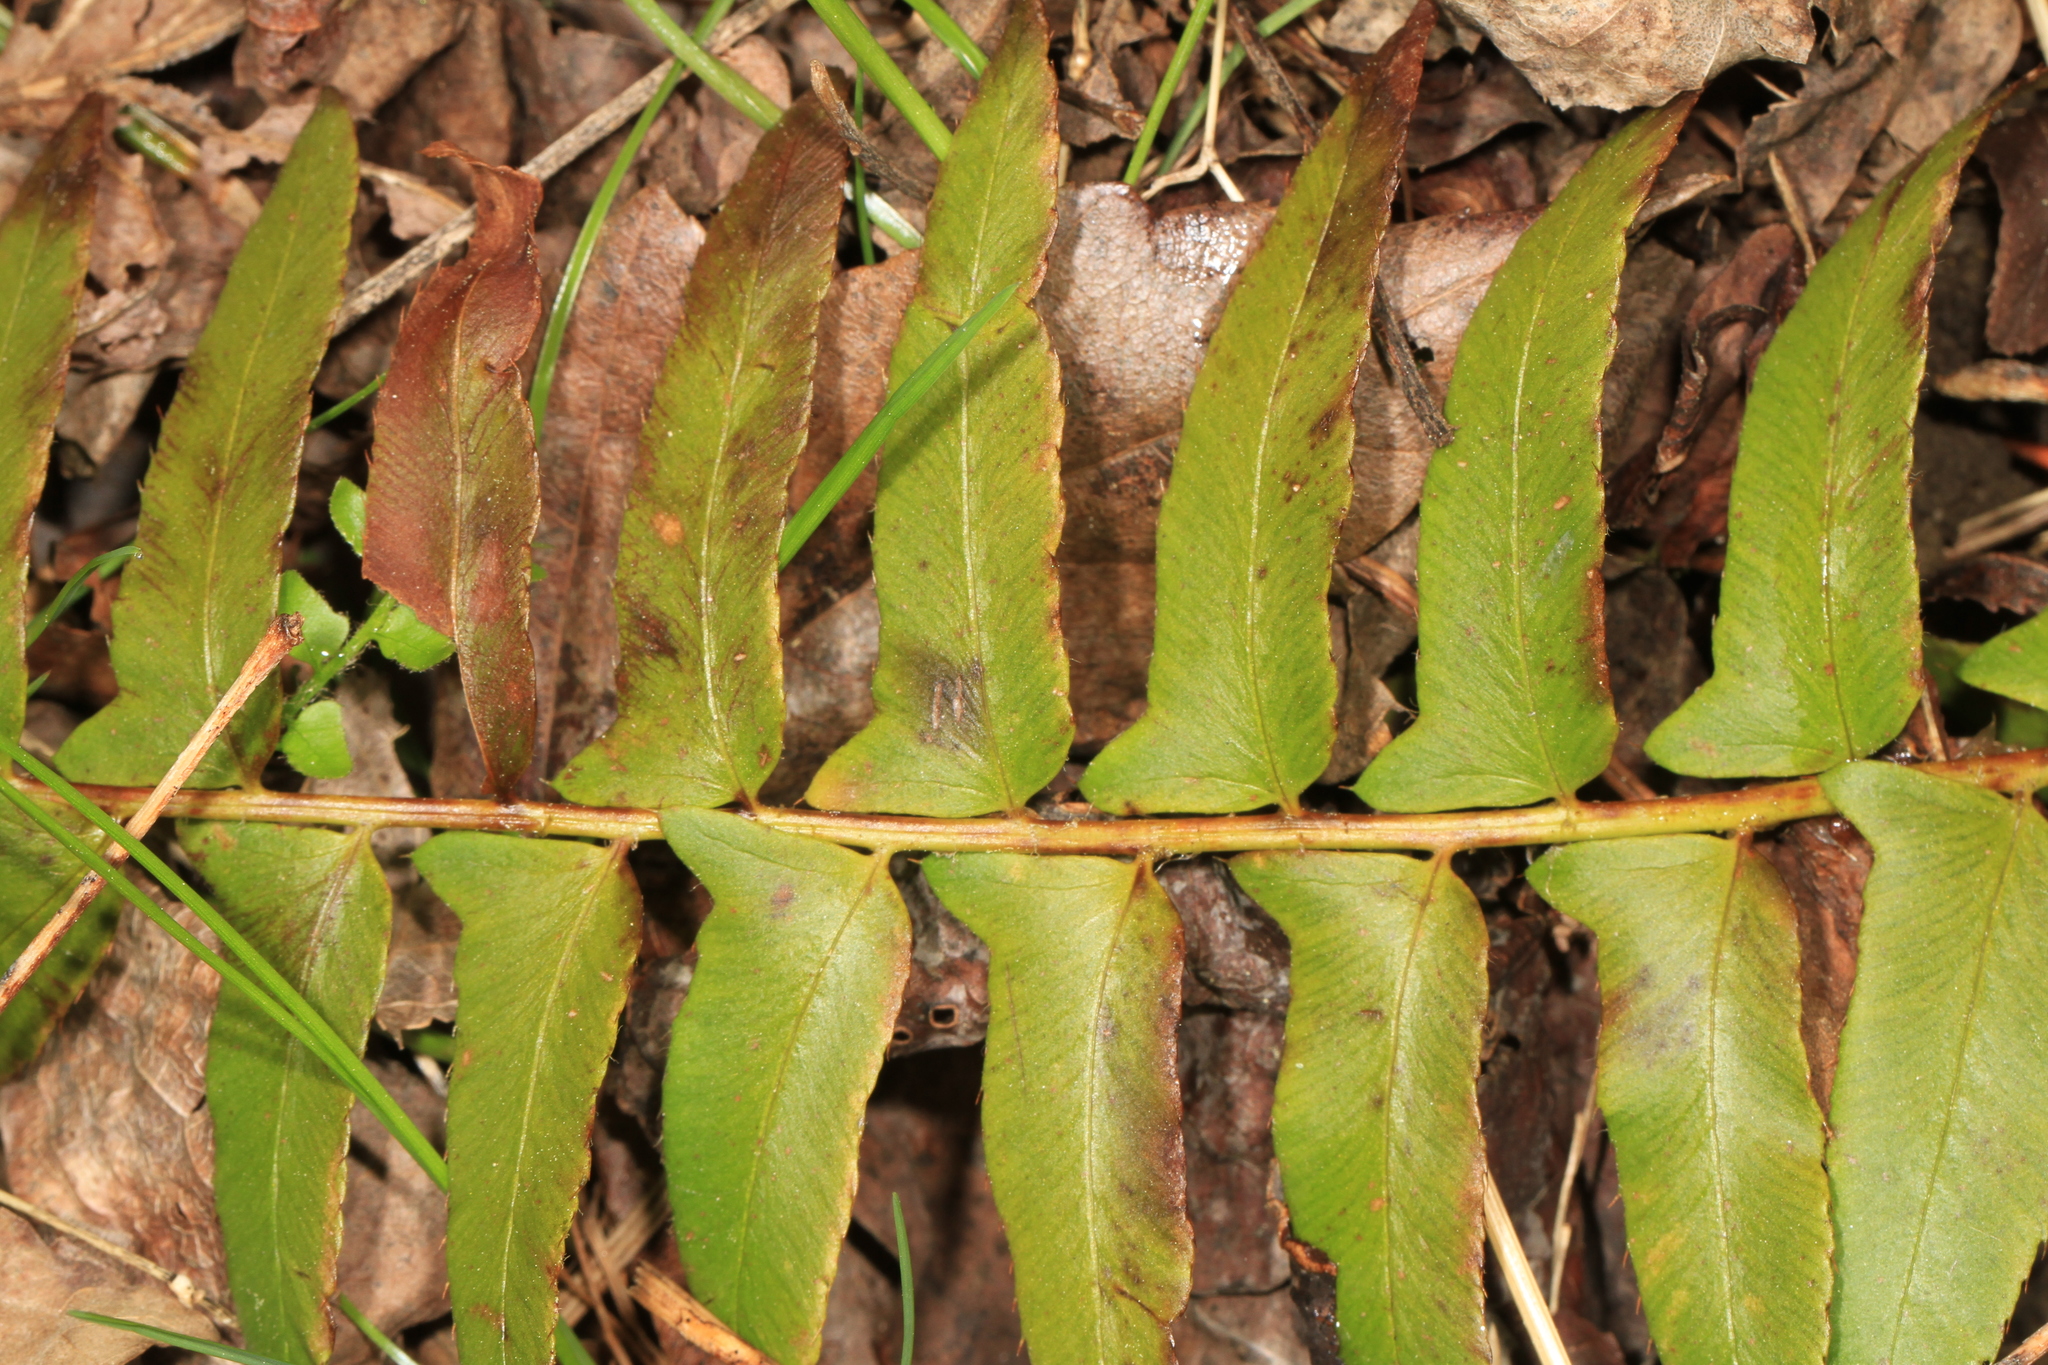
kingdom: Plantae
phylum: Tracheophyta
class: Polypodiopsida
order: Polypodiales
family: Dryopteridaceae
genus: Polystichum
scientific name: Polystichum acrostichoides
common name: Christmas fern
